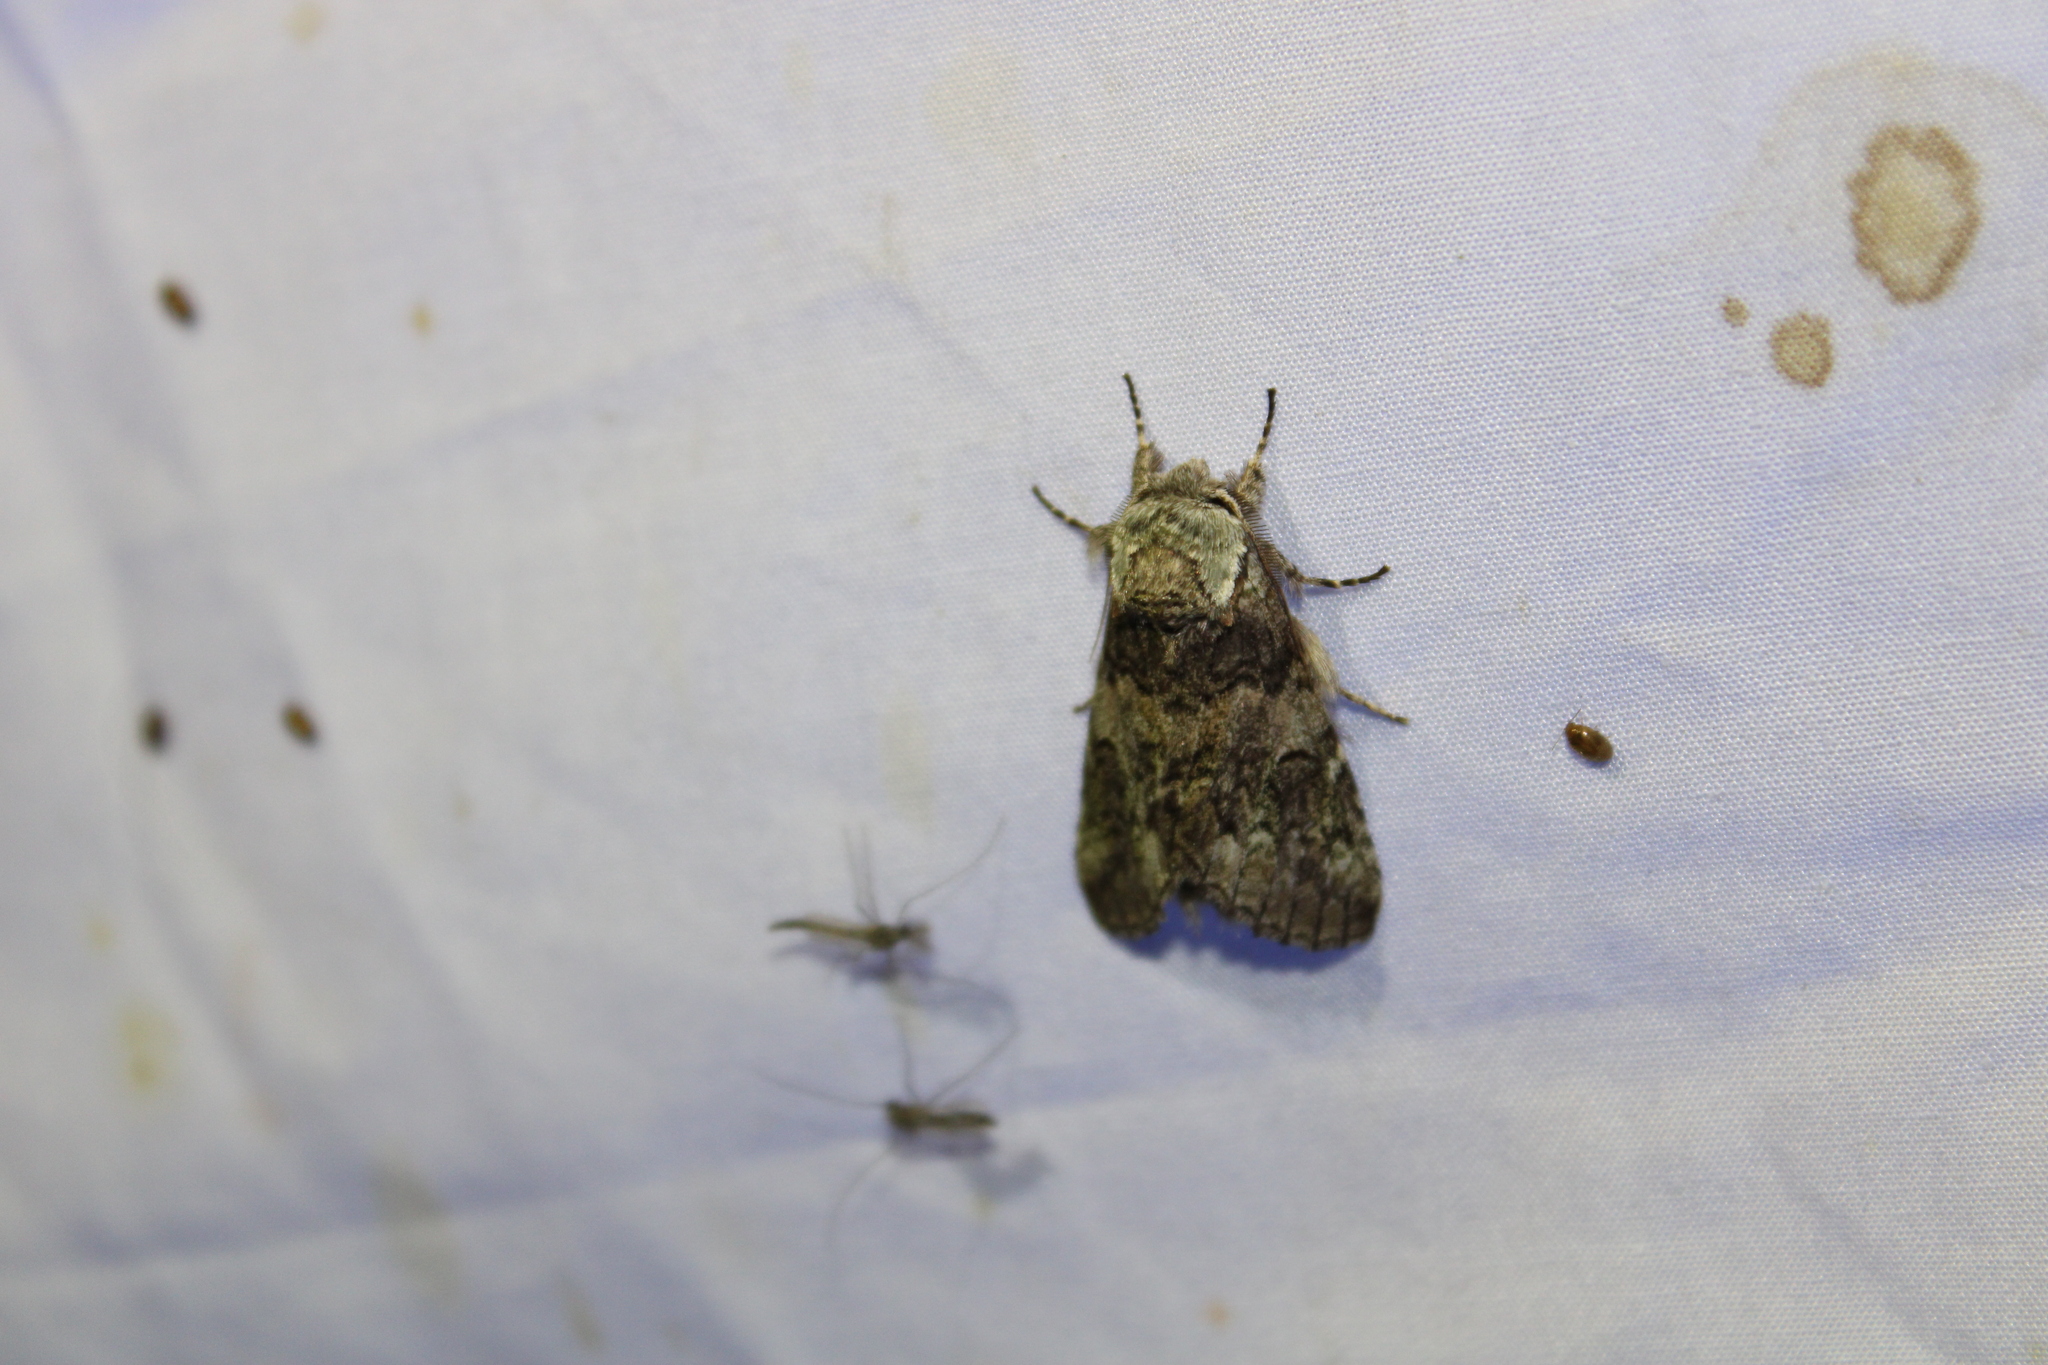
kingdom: Animalia
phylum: Arthropoda
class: Insecta
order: Lepidoptera
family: Notodontidae
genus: Macrurocampa
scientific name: Macrurocampa marthesia
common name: Mottled prominent
